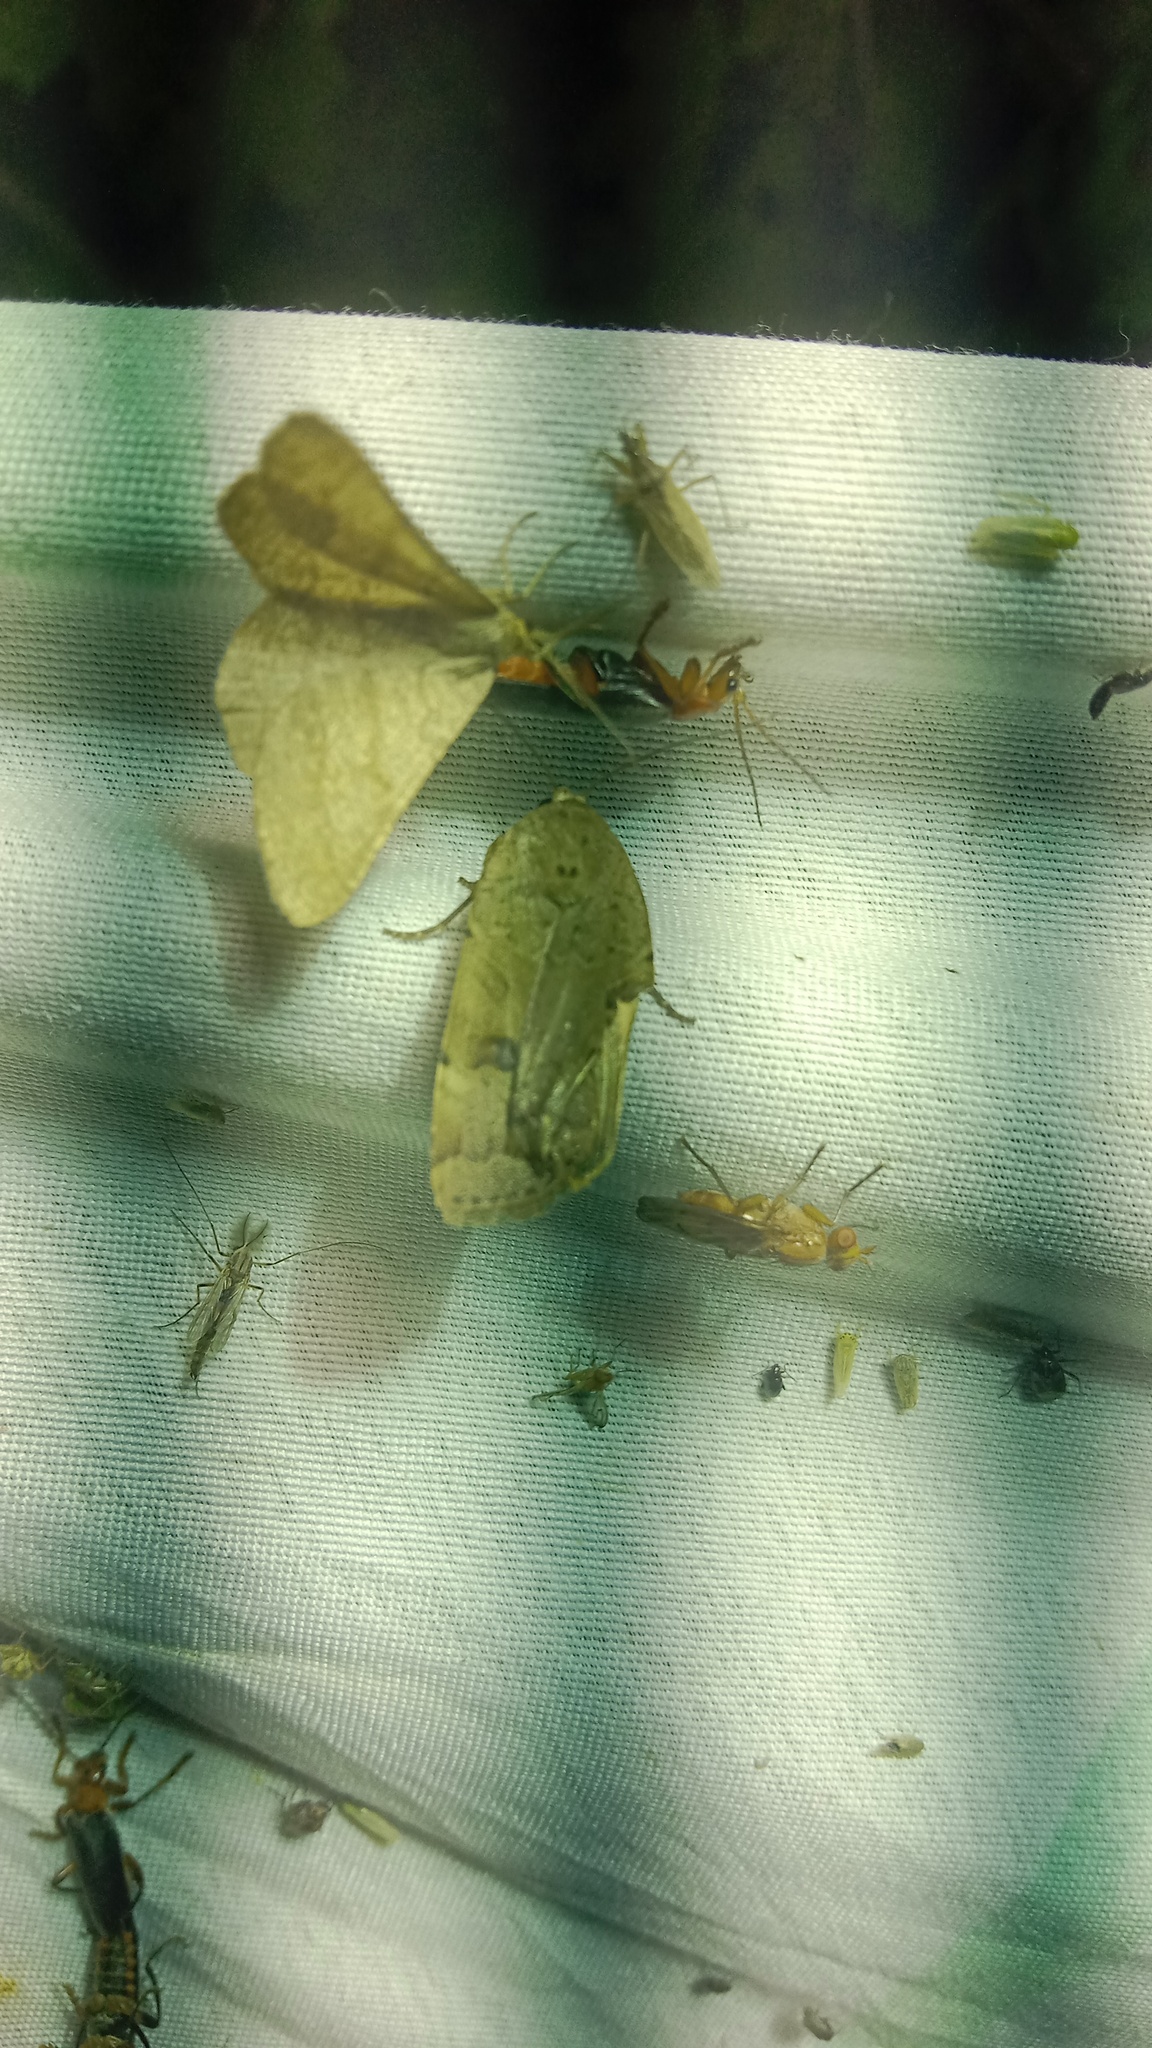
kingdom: Animalia
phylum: Arthropoda
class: Insecta
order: Lepidoptera
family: Geometridae
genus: Tephrina
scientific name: Tephrina murinaria
